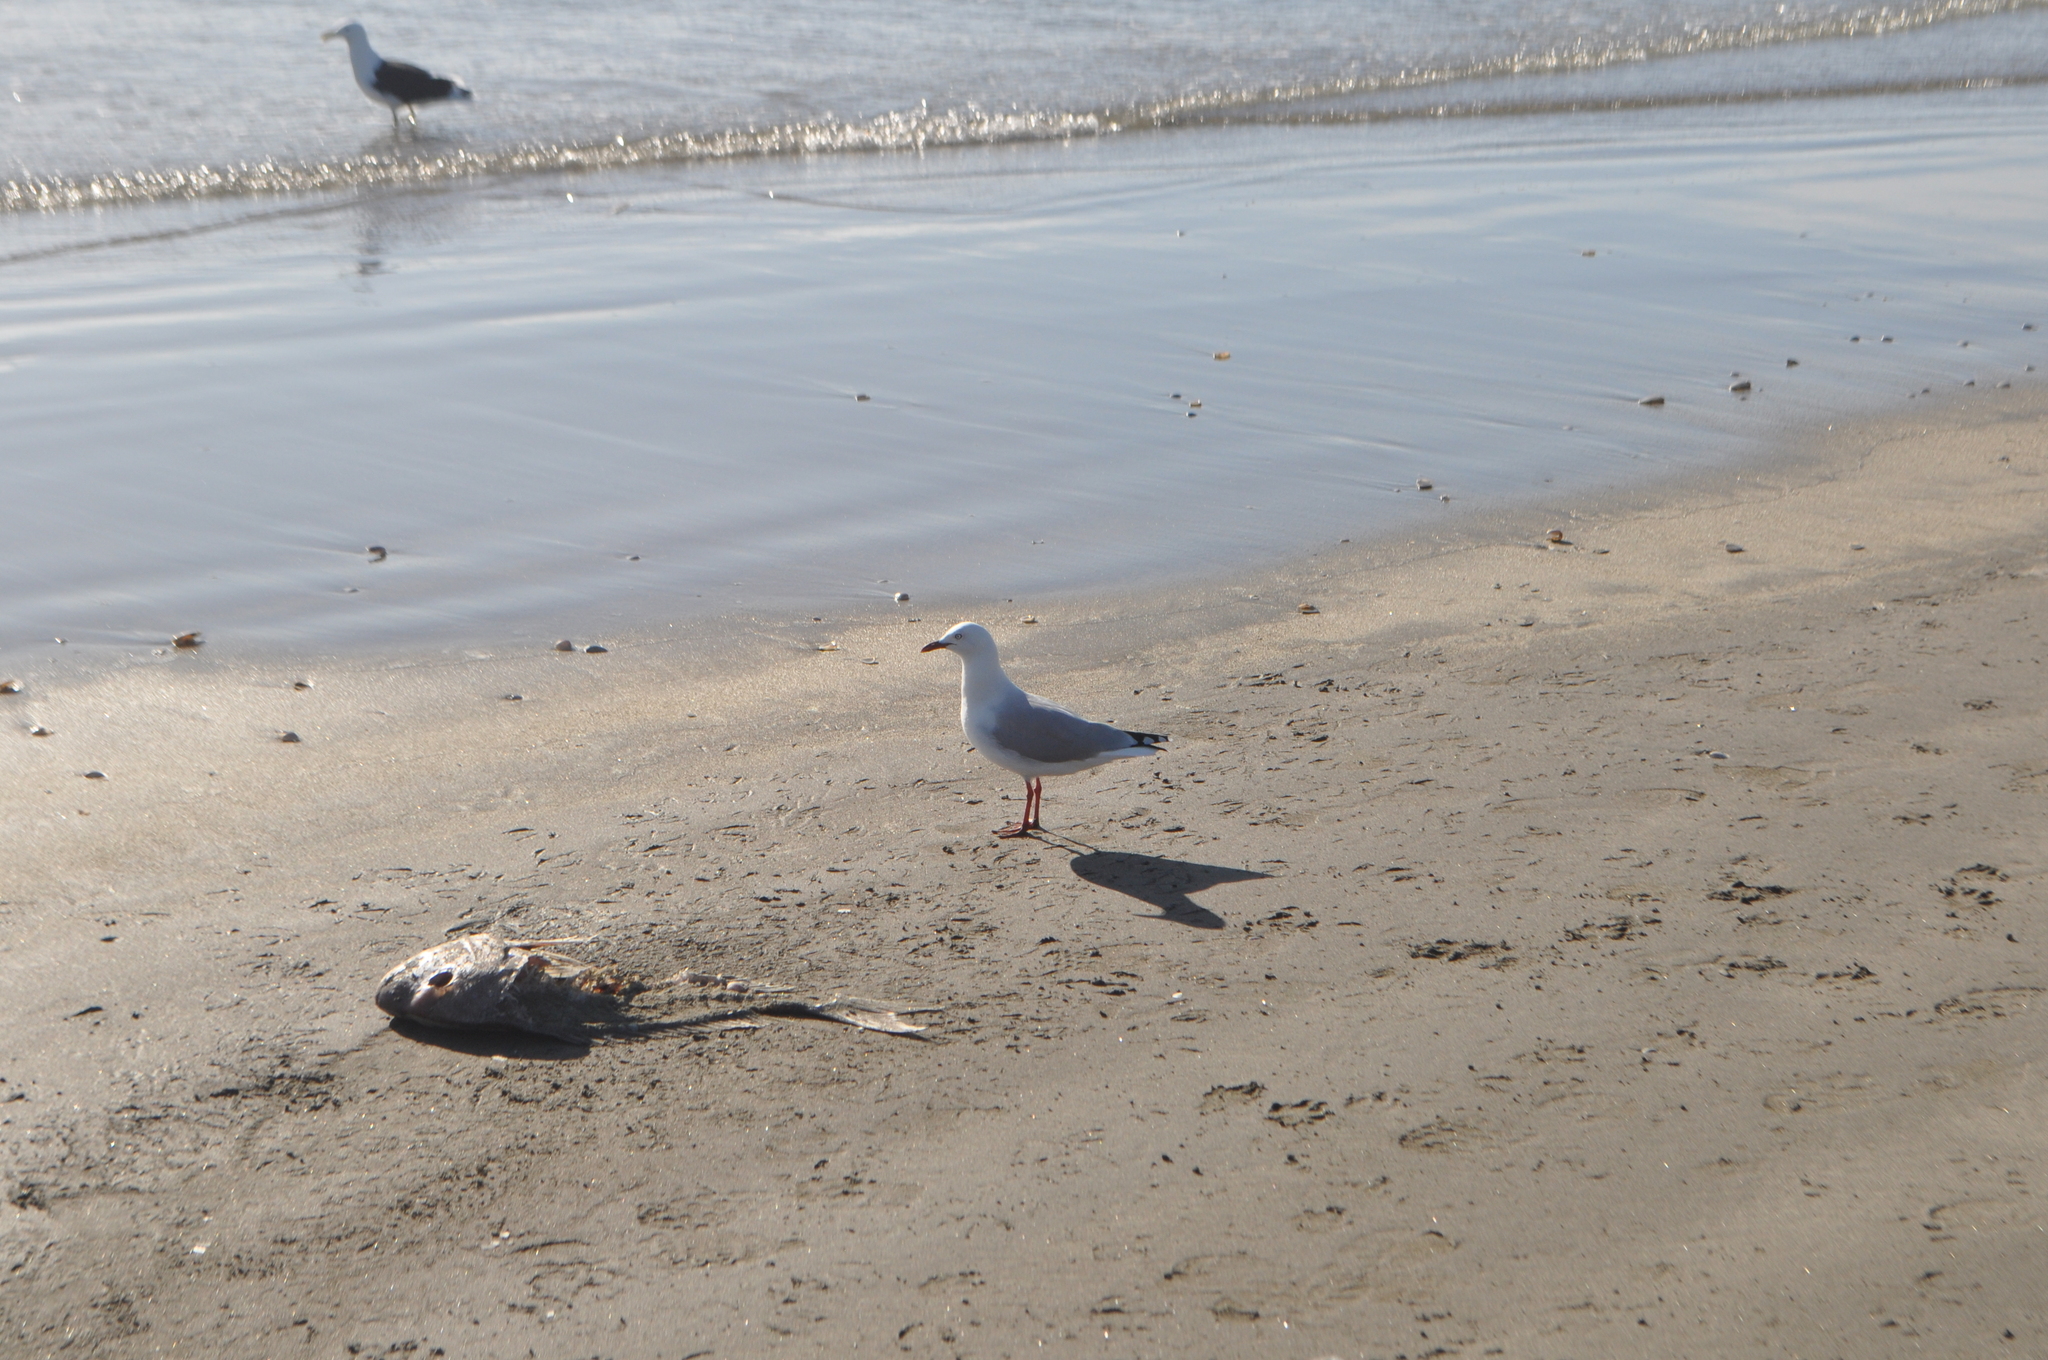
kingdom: Animalia
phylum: Chordata
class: Aves
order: Charadriiformes
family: Laridae
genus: Chroicocephalus
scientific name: Chroicocephalus novaehollandiae
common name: Silver gull
